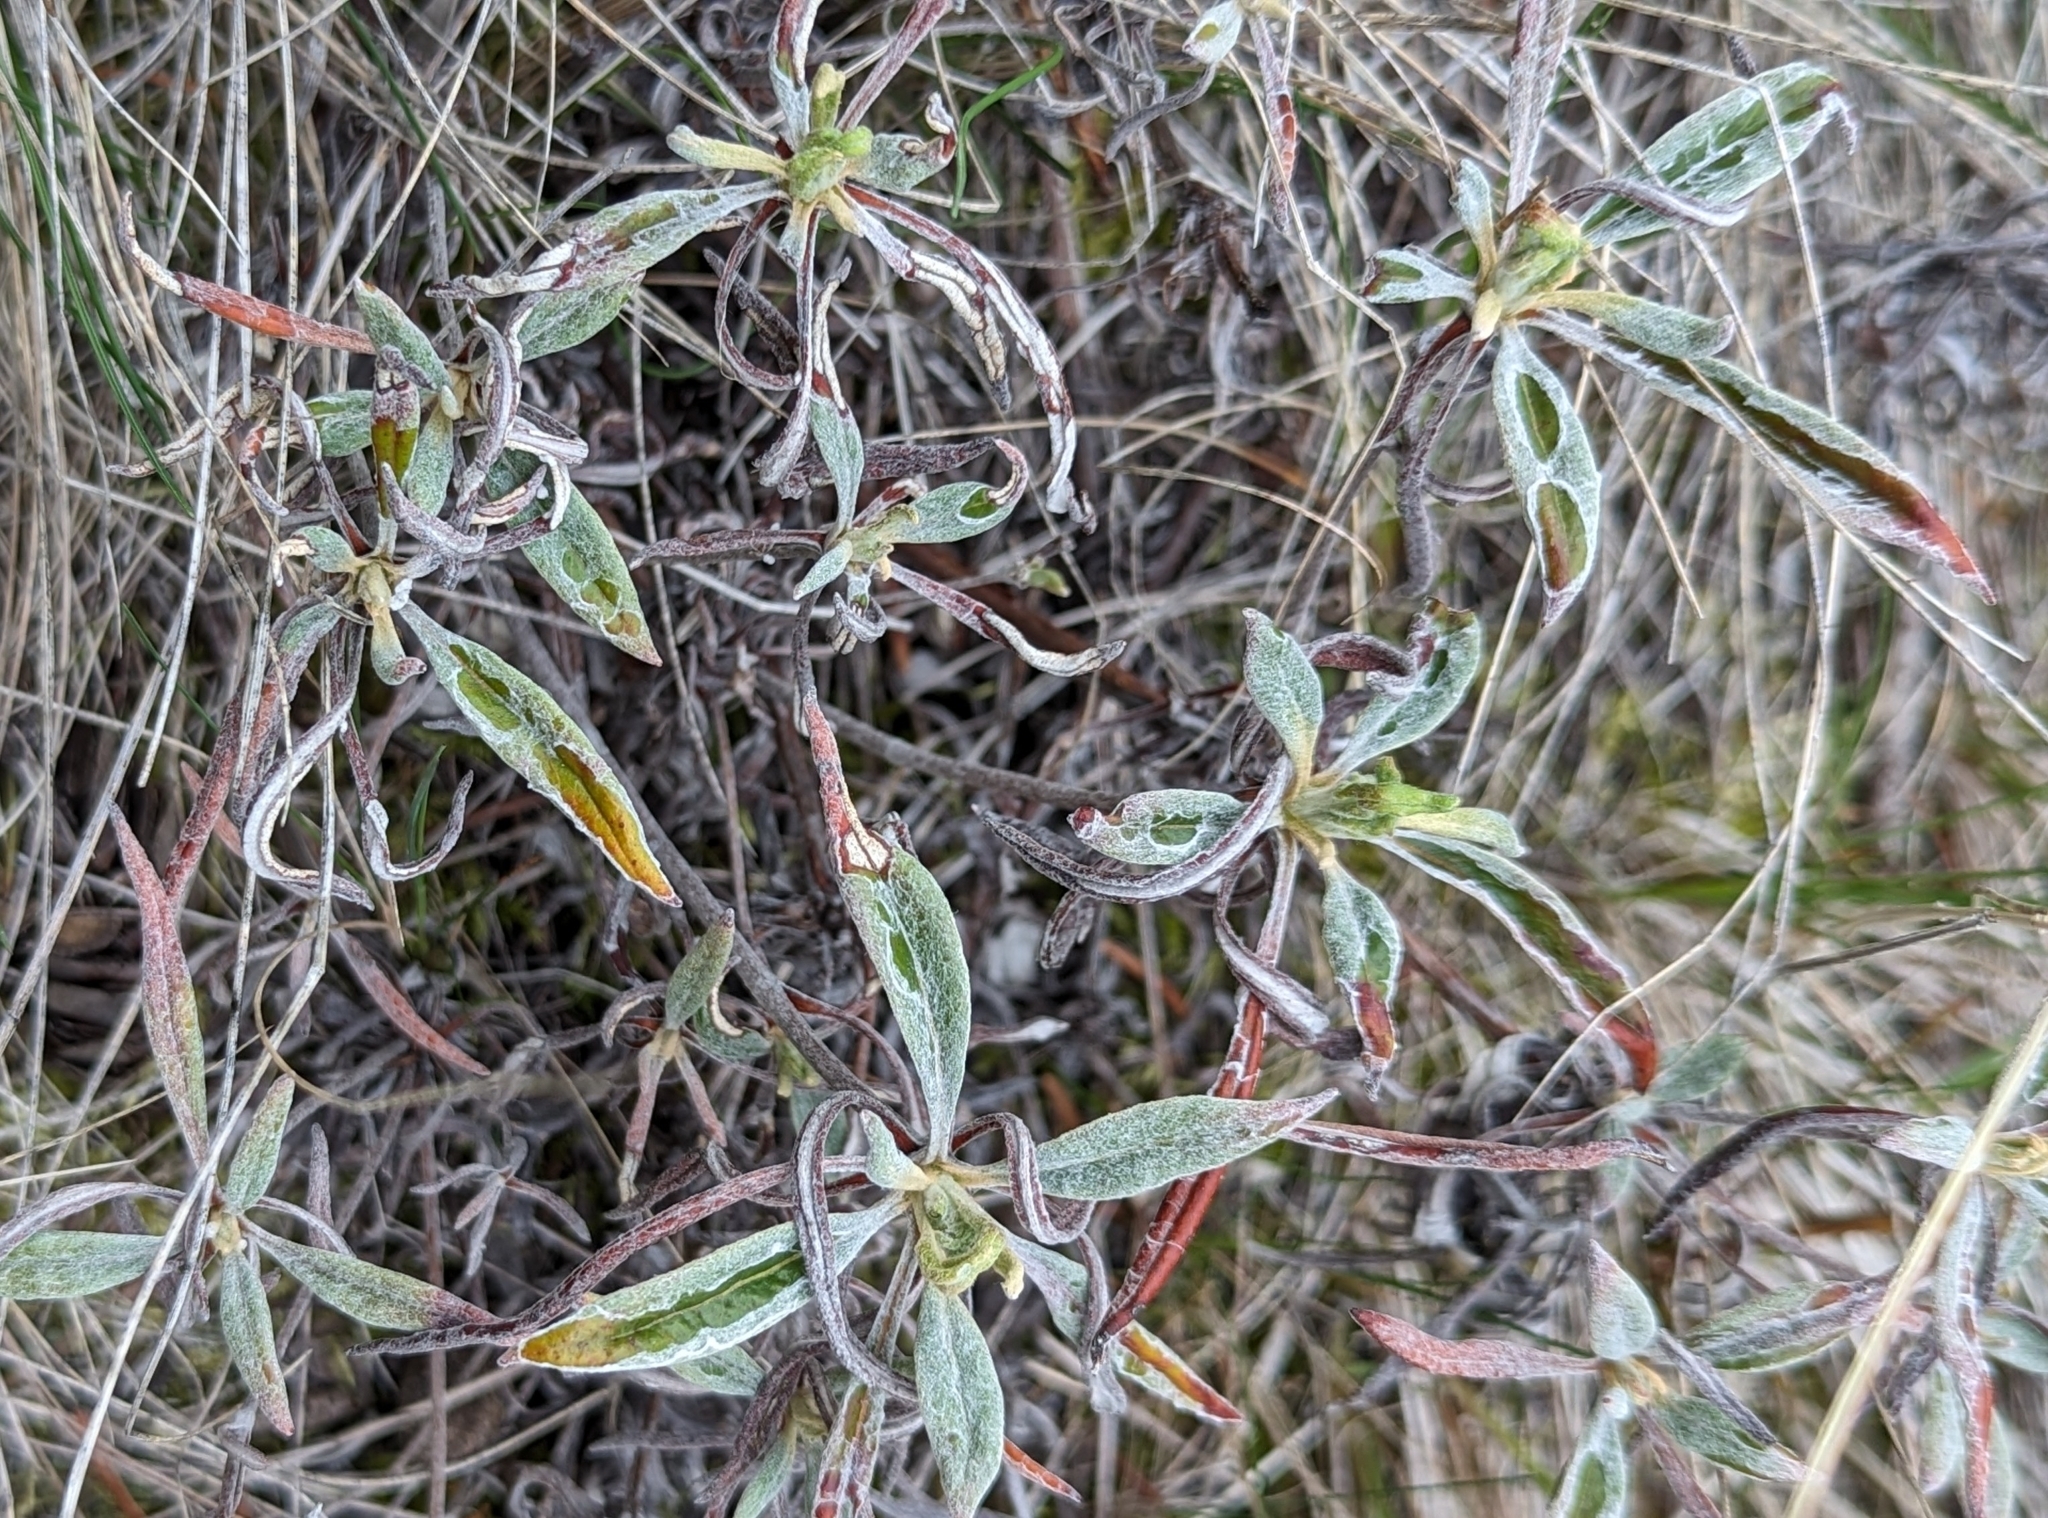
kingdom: Plantae
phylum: Tracheophyta
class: Magnoliopsida
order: Caryophyllales
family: Polygonaceae
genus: Eriogonum
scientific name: Eriogonum heracleoides
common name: Wyeth's buckwheat
